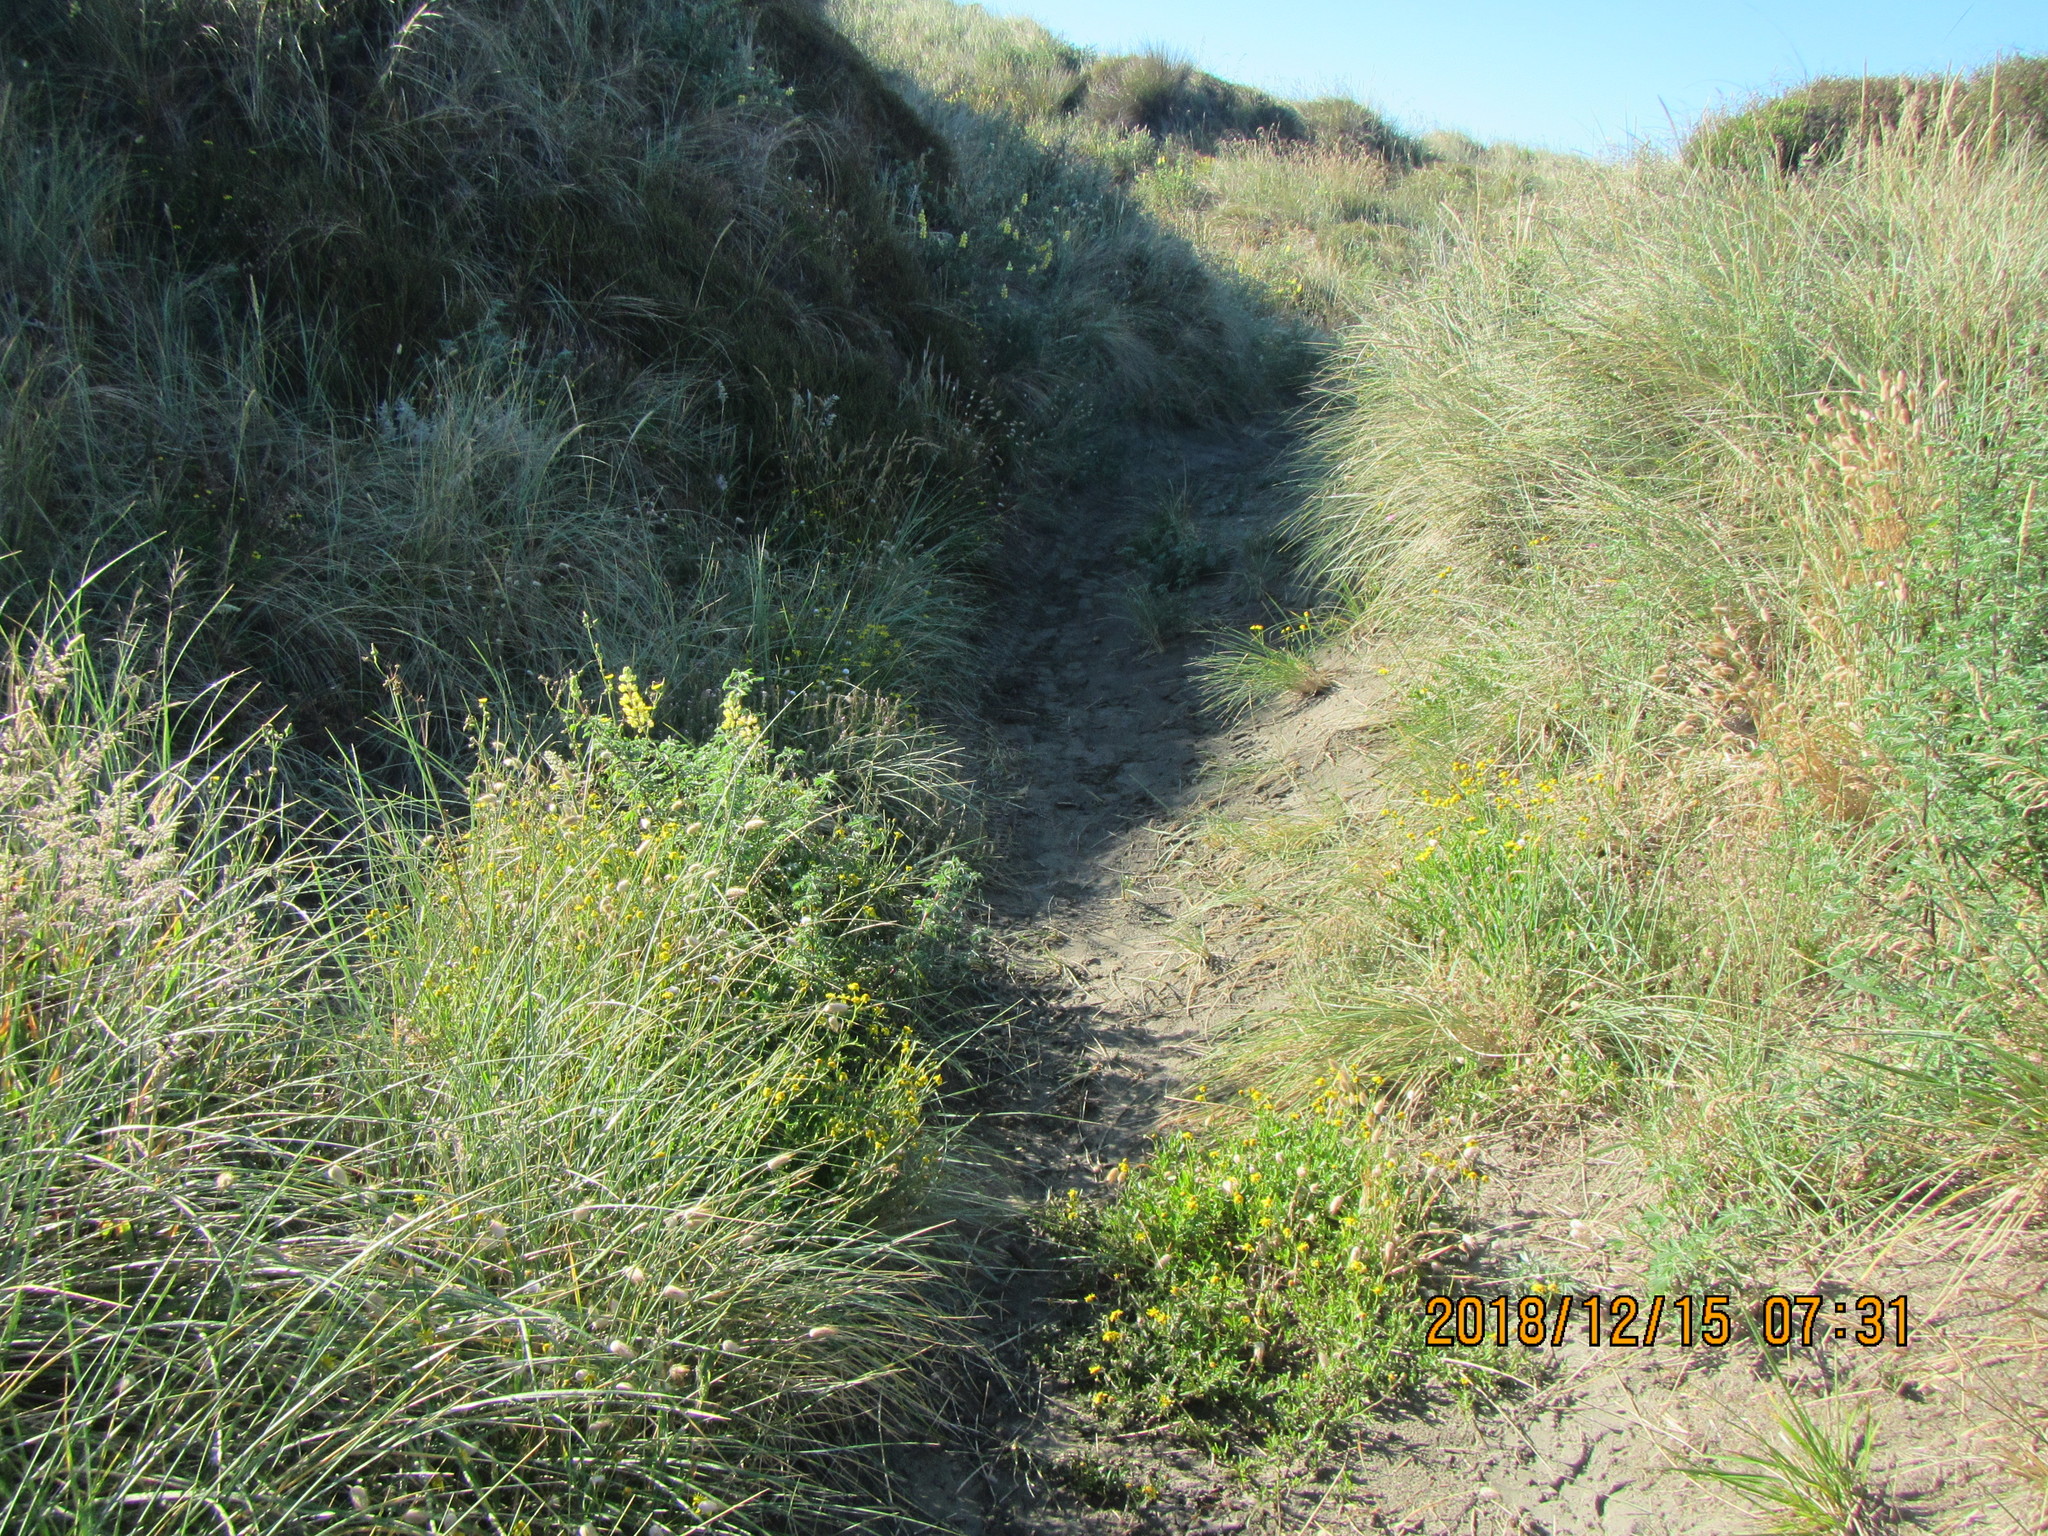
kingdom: Plantae
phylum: Tracheophyta
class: Magnoliopsida
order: Asterales
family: Asteraceae
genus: Senecio
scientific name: Senecio skirrhodon
